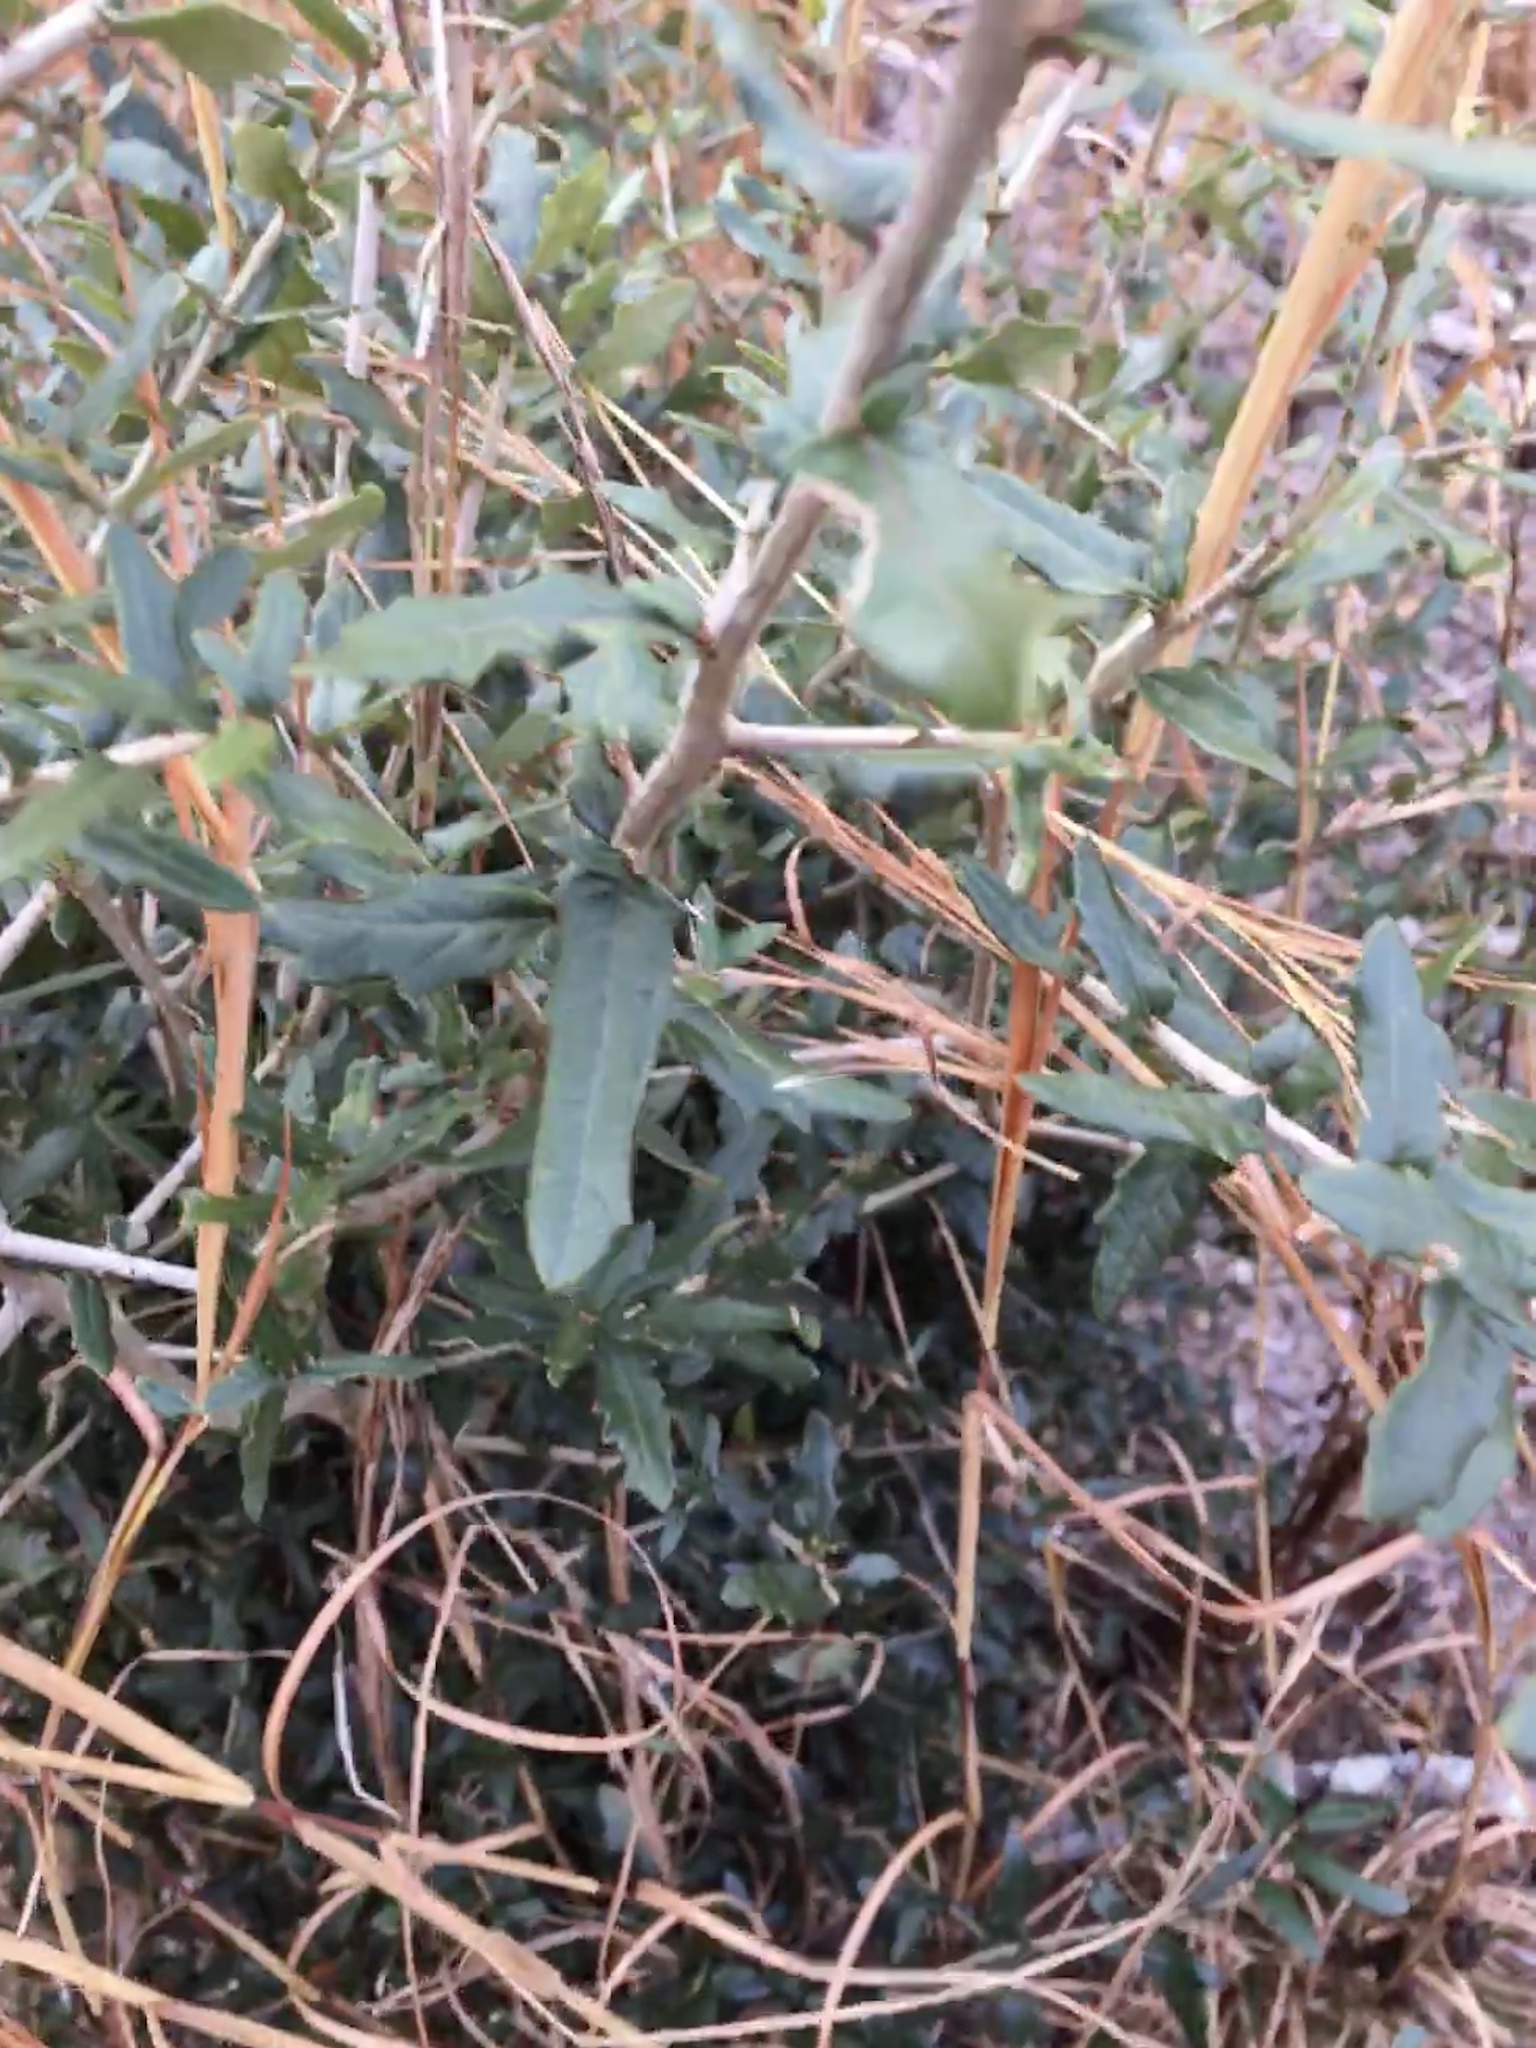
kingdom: Plantae
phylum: Tracheophyta
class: Magnoliopsida
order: Fagales
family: Fagaceae
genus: Quercus
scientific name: Quercus virginiana
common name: Southern live oak
